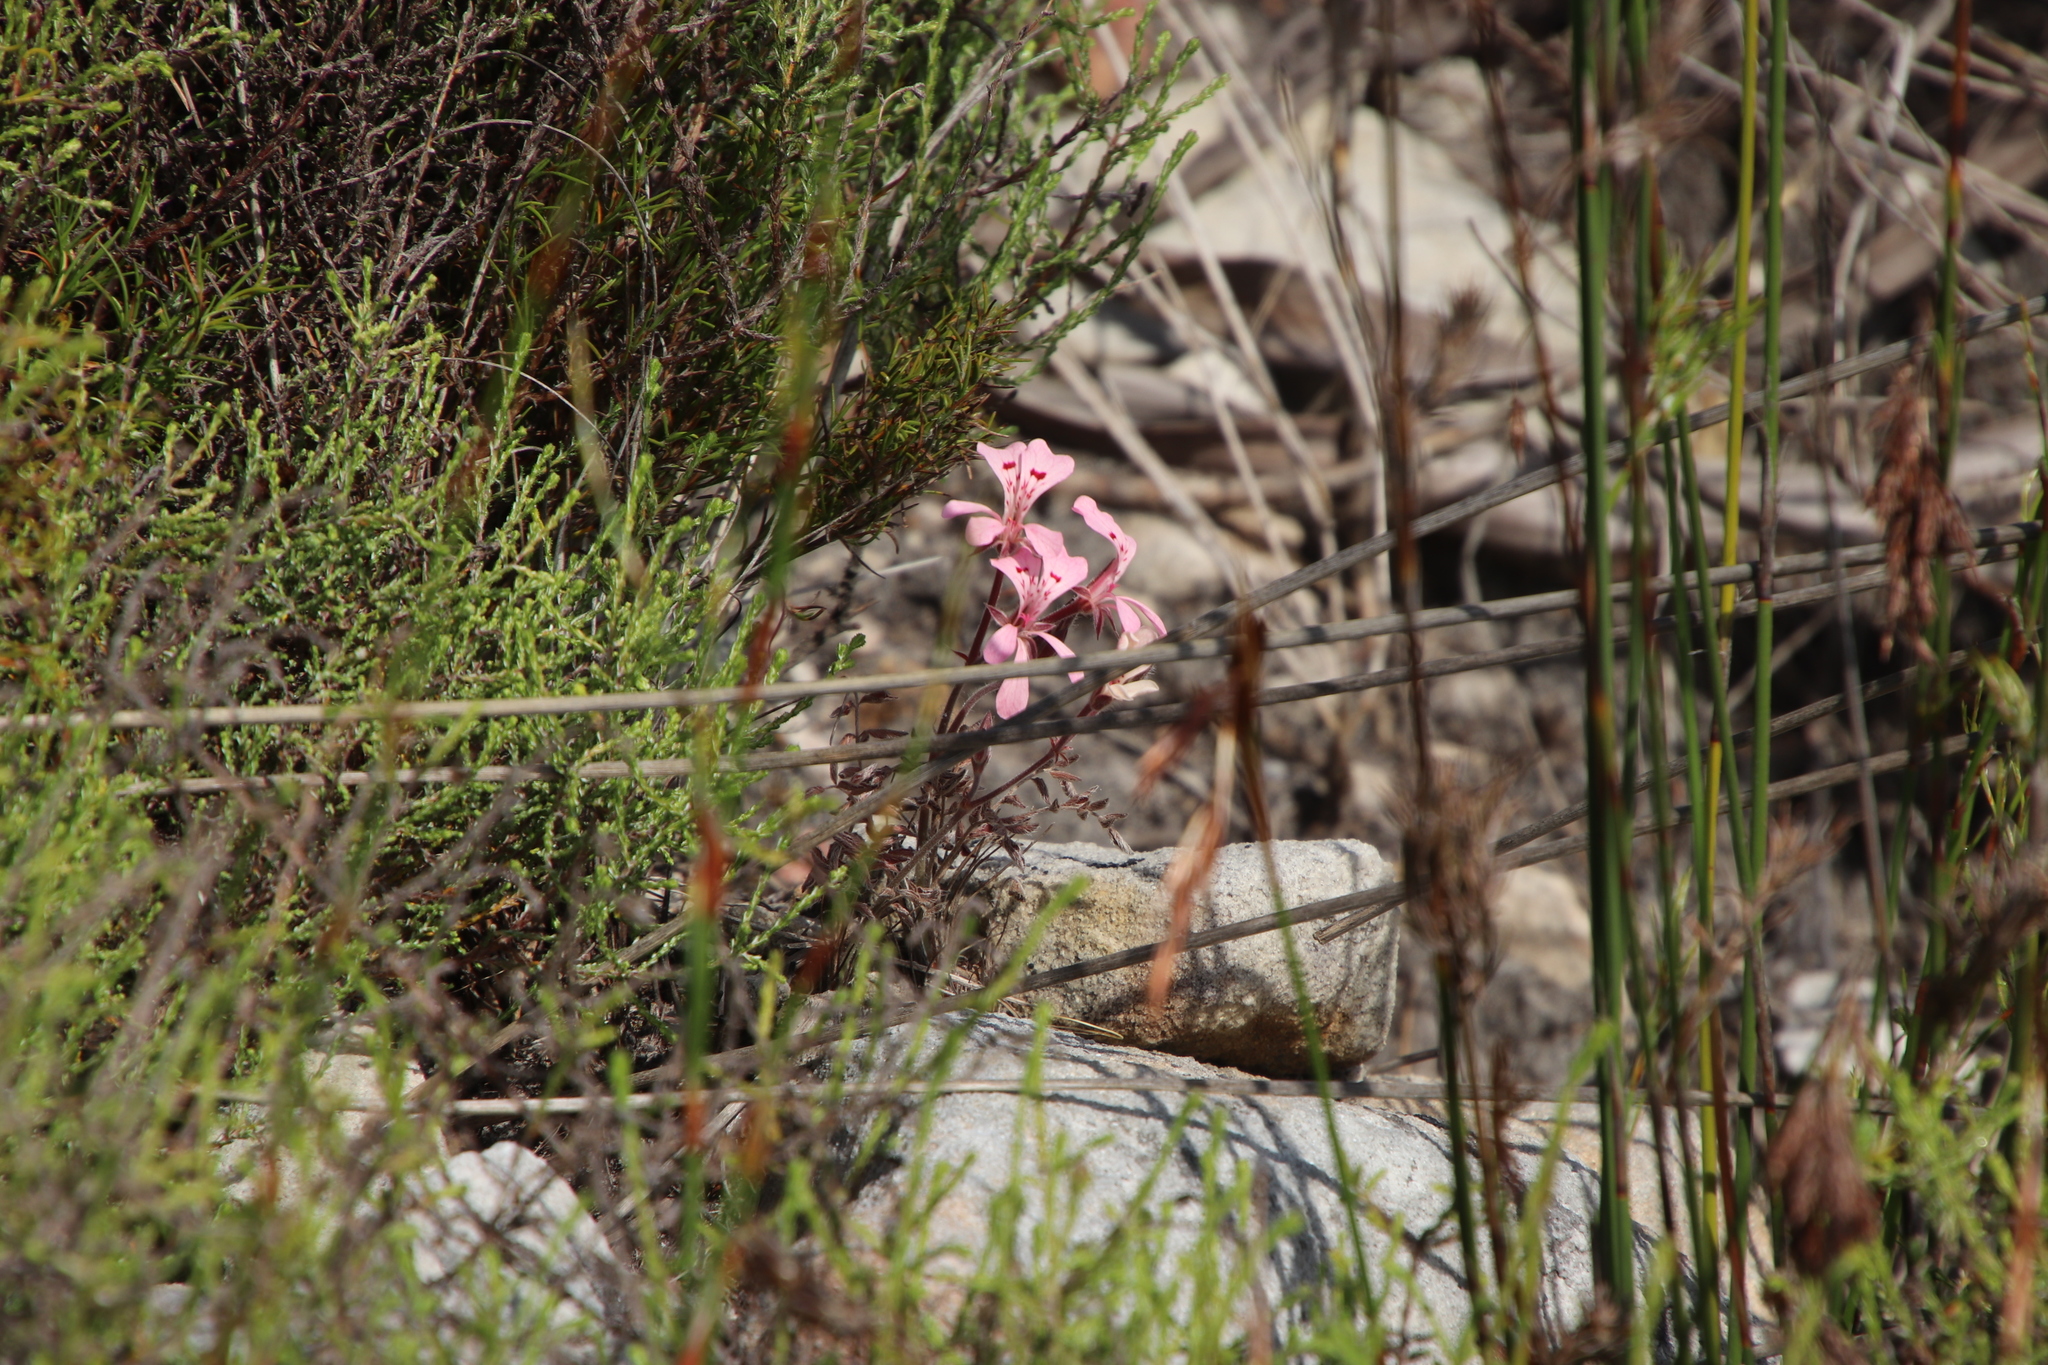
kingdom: Plantae
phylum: Tracheophyta
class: Magnoliopsida
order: Geraniales
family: Geraniaceae
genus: Pelargonium
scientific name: Pelargonium pinnatum
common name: Pinnated pelargonium
